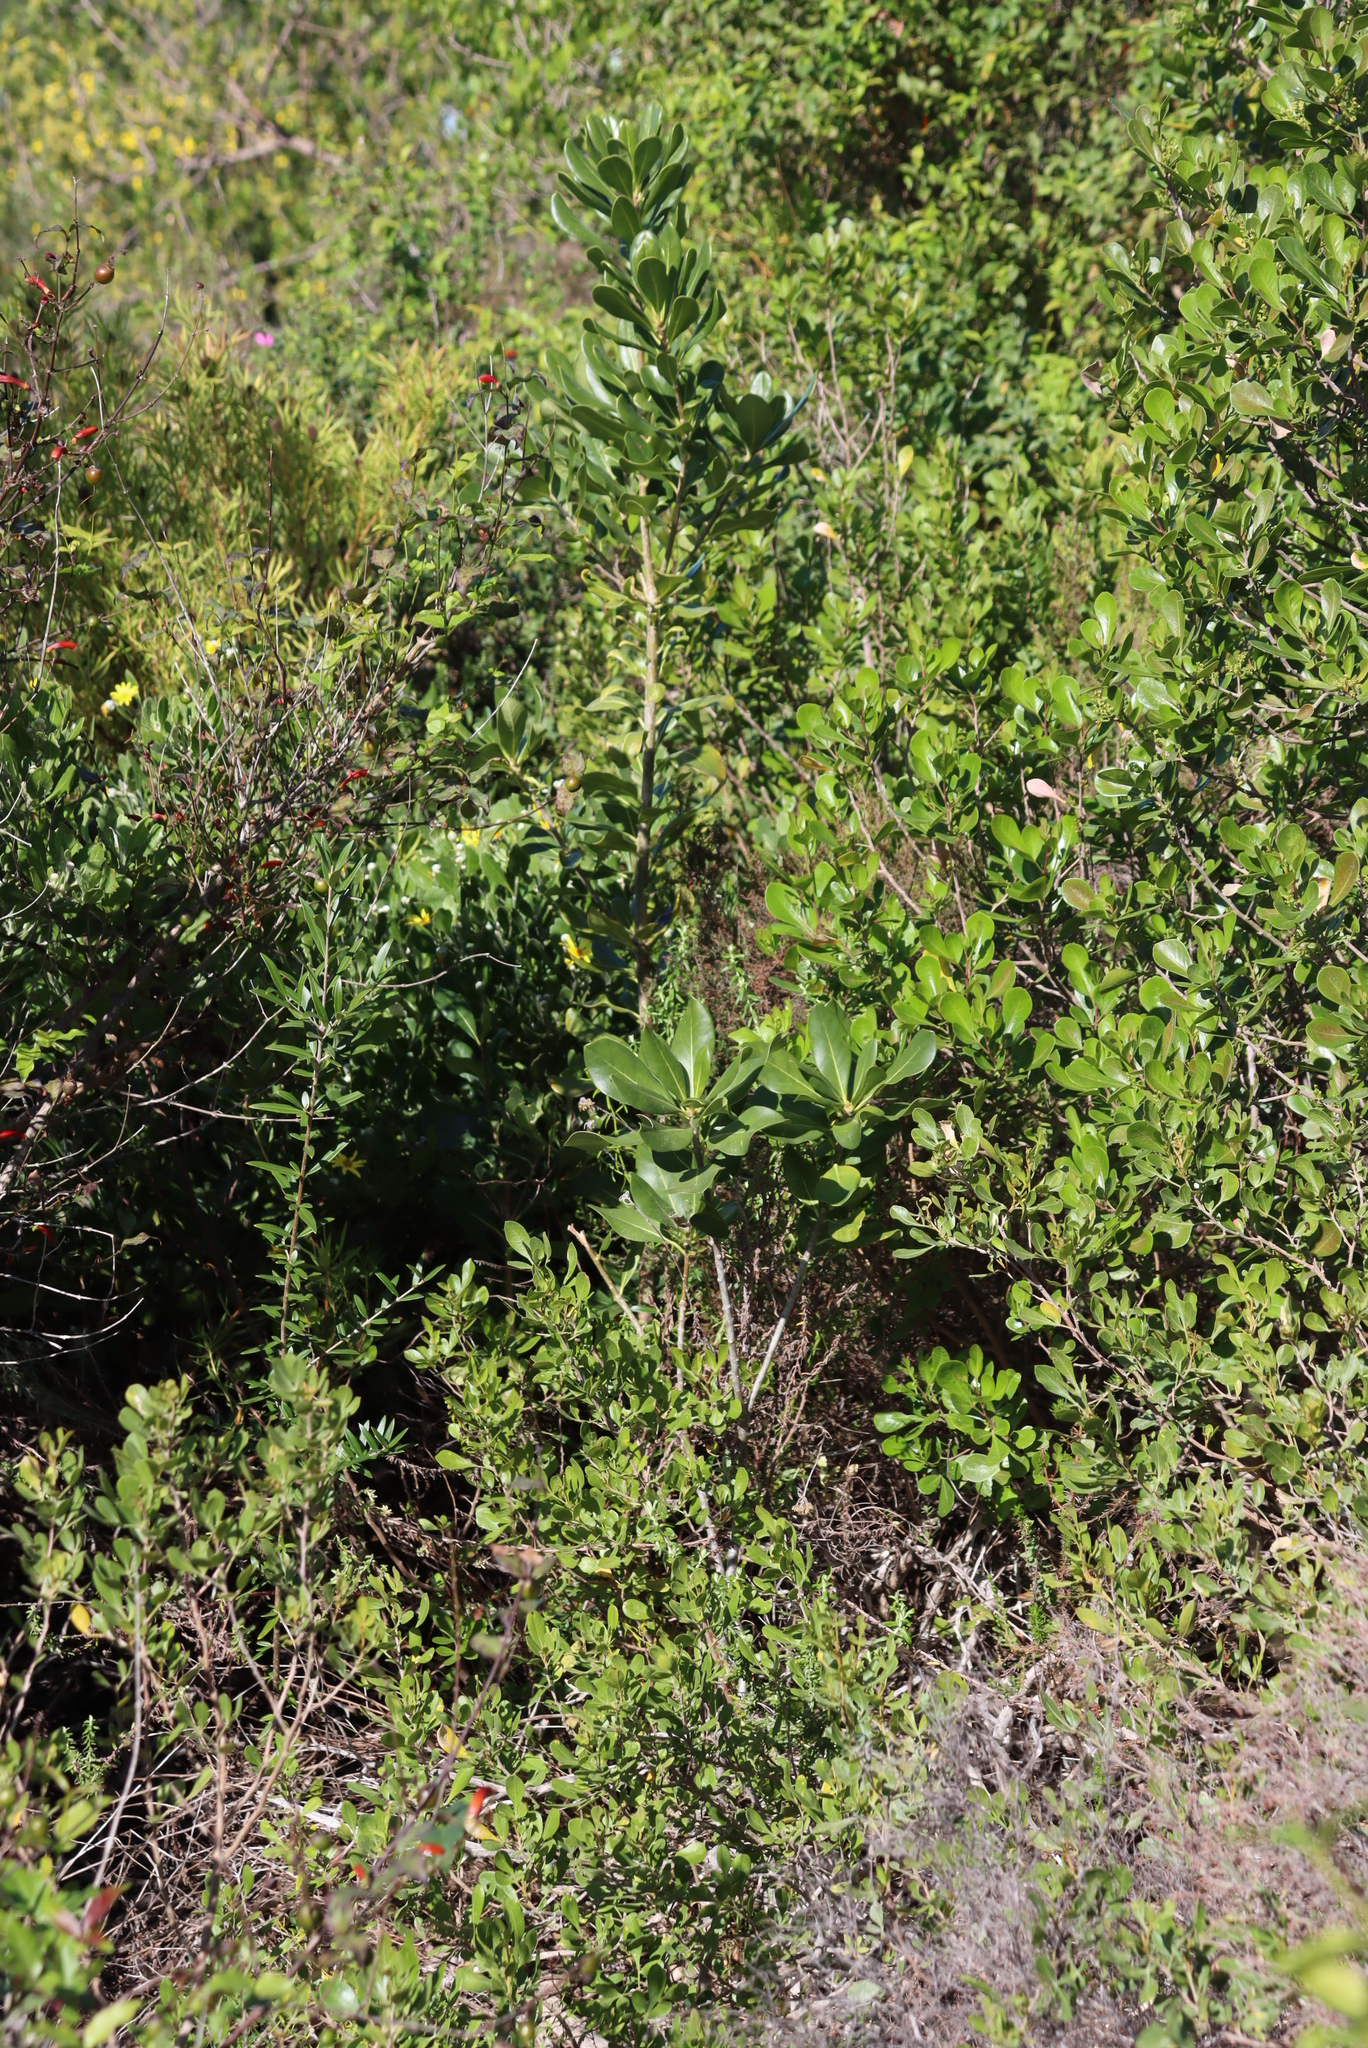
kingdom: Plantae
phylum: Tracheophyta
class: Magnoliopsida
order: Apiales
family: Pittosporaceae
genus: Pittosporum
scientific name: Pittosporum viridiflorum
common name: Cape cheesewood
